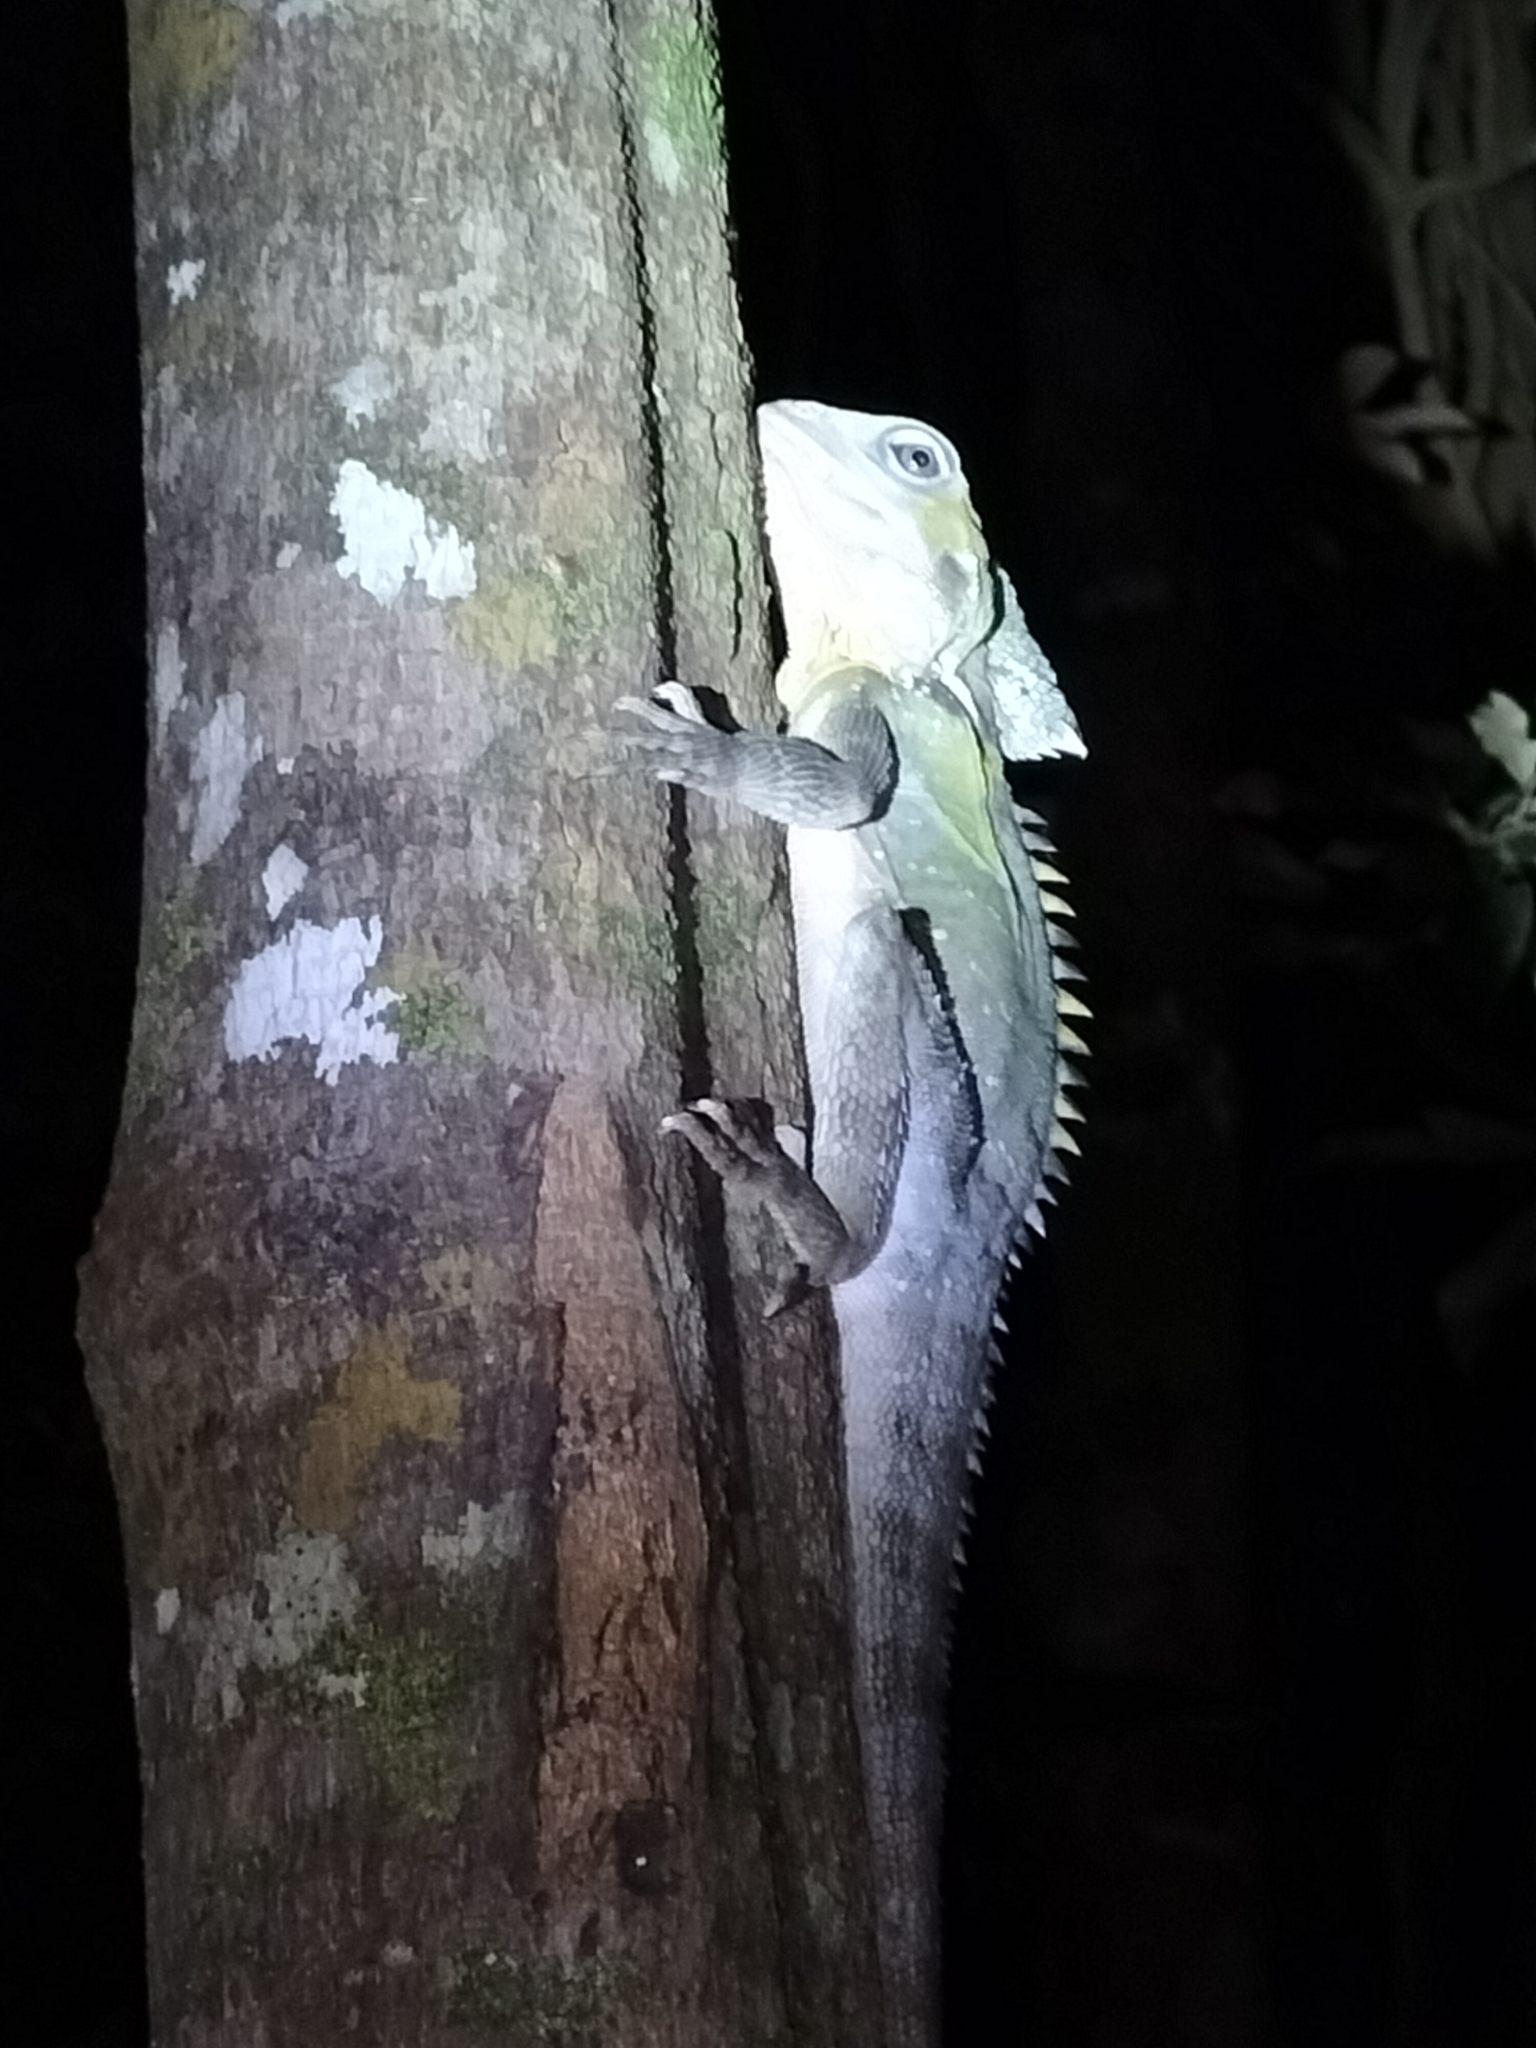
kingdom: Animalia
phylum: Chordata
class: Squamata
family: Agamidae
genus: Lophosaurus
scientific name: Lophosaurus boydii
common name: Boyd's forest dragon
